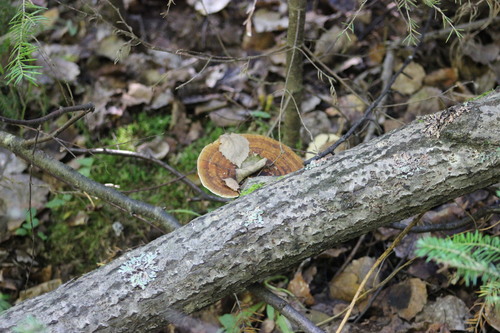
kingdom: Fungi
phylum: Basidiomycota
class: Agaricomycetes
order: Polyporales
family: Polyporaceae
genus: Daedaleopsis
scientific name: Daedaleopsis confragosa
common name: Blushing bracket
